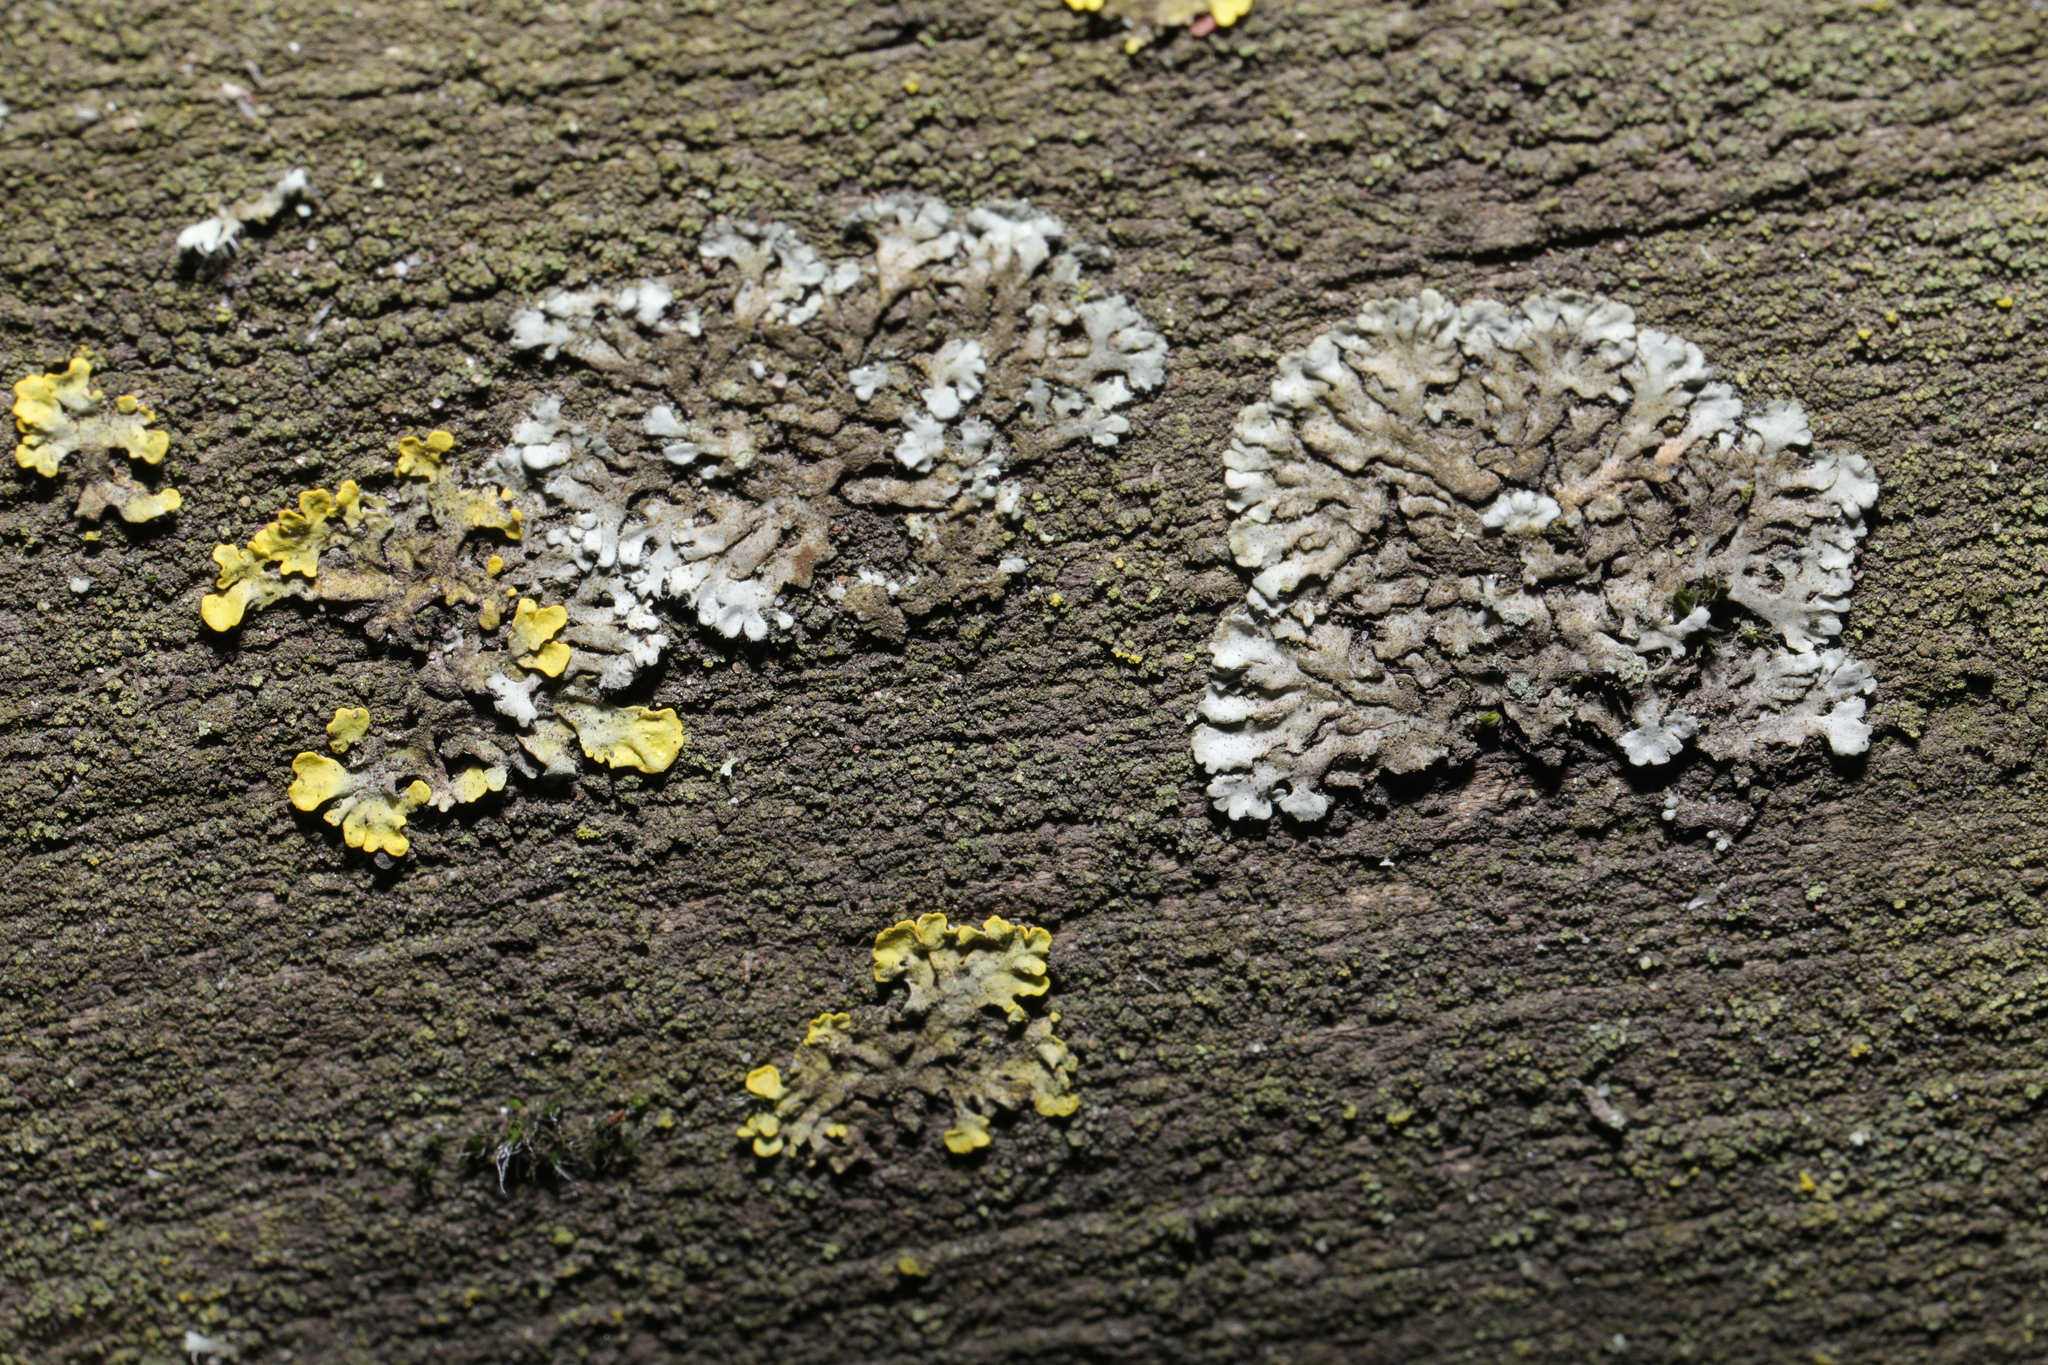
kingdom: Fungi
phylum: Ascomycota
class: Lecanoromycetes
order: Caliciales
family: Physciaceae
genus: Phaeophyscia
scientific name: Phaeophyscia orbicularis
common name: Mealy shadow lichen
